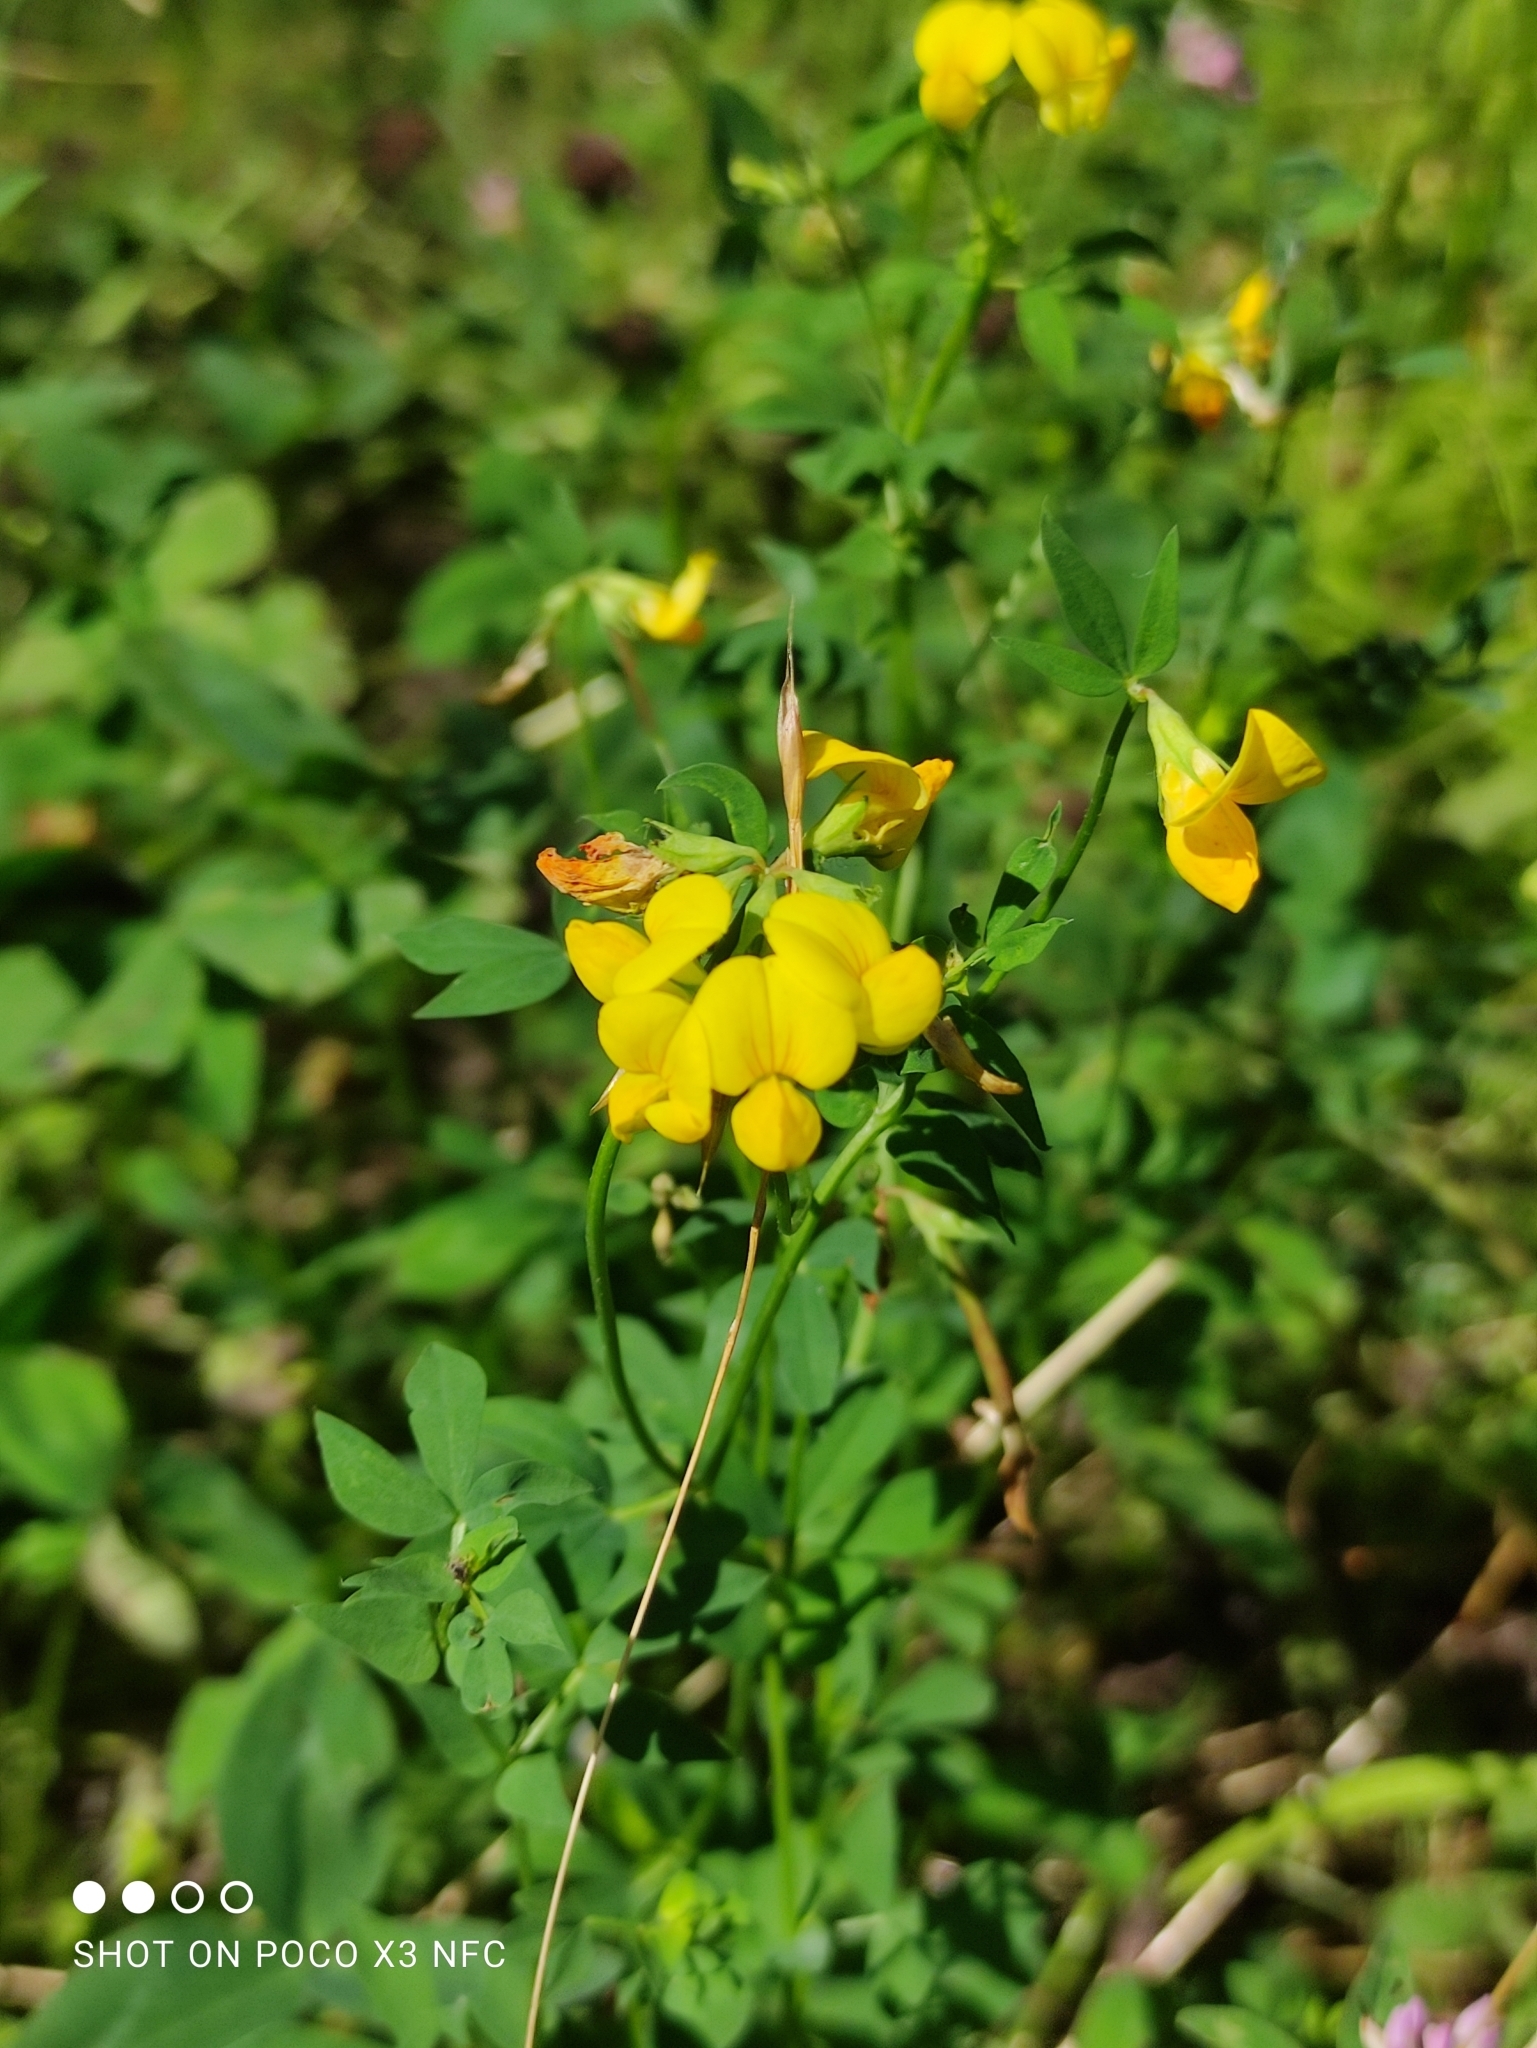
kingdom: Plantae
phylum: Tracheophyta
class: Magnoliopsida
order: Fabales
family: Fabaceae
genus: Lotus
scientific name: Lotus corniculatus
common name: Common bird's-foot-trefoil
